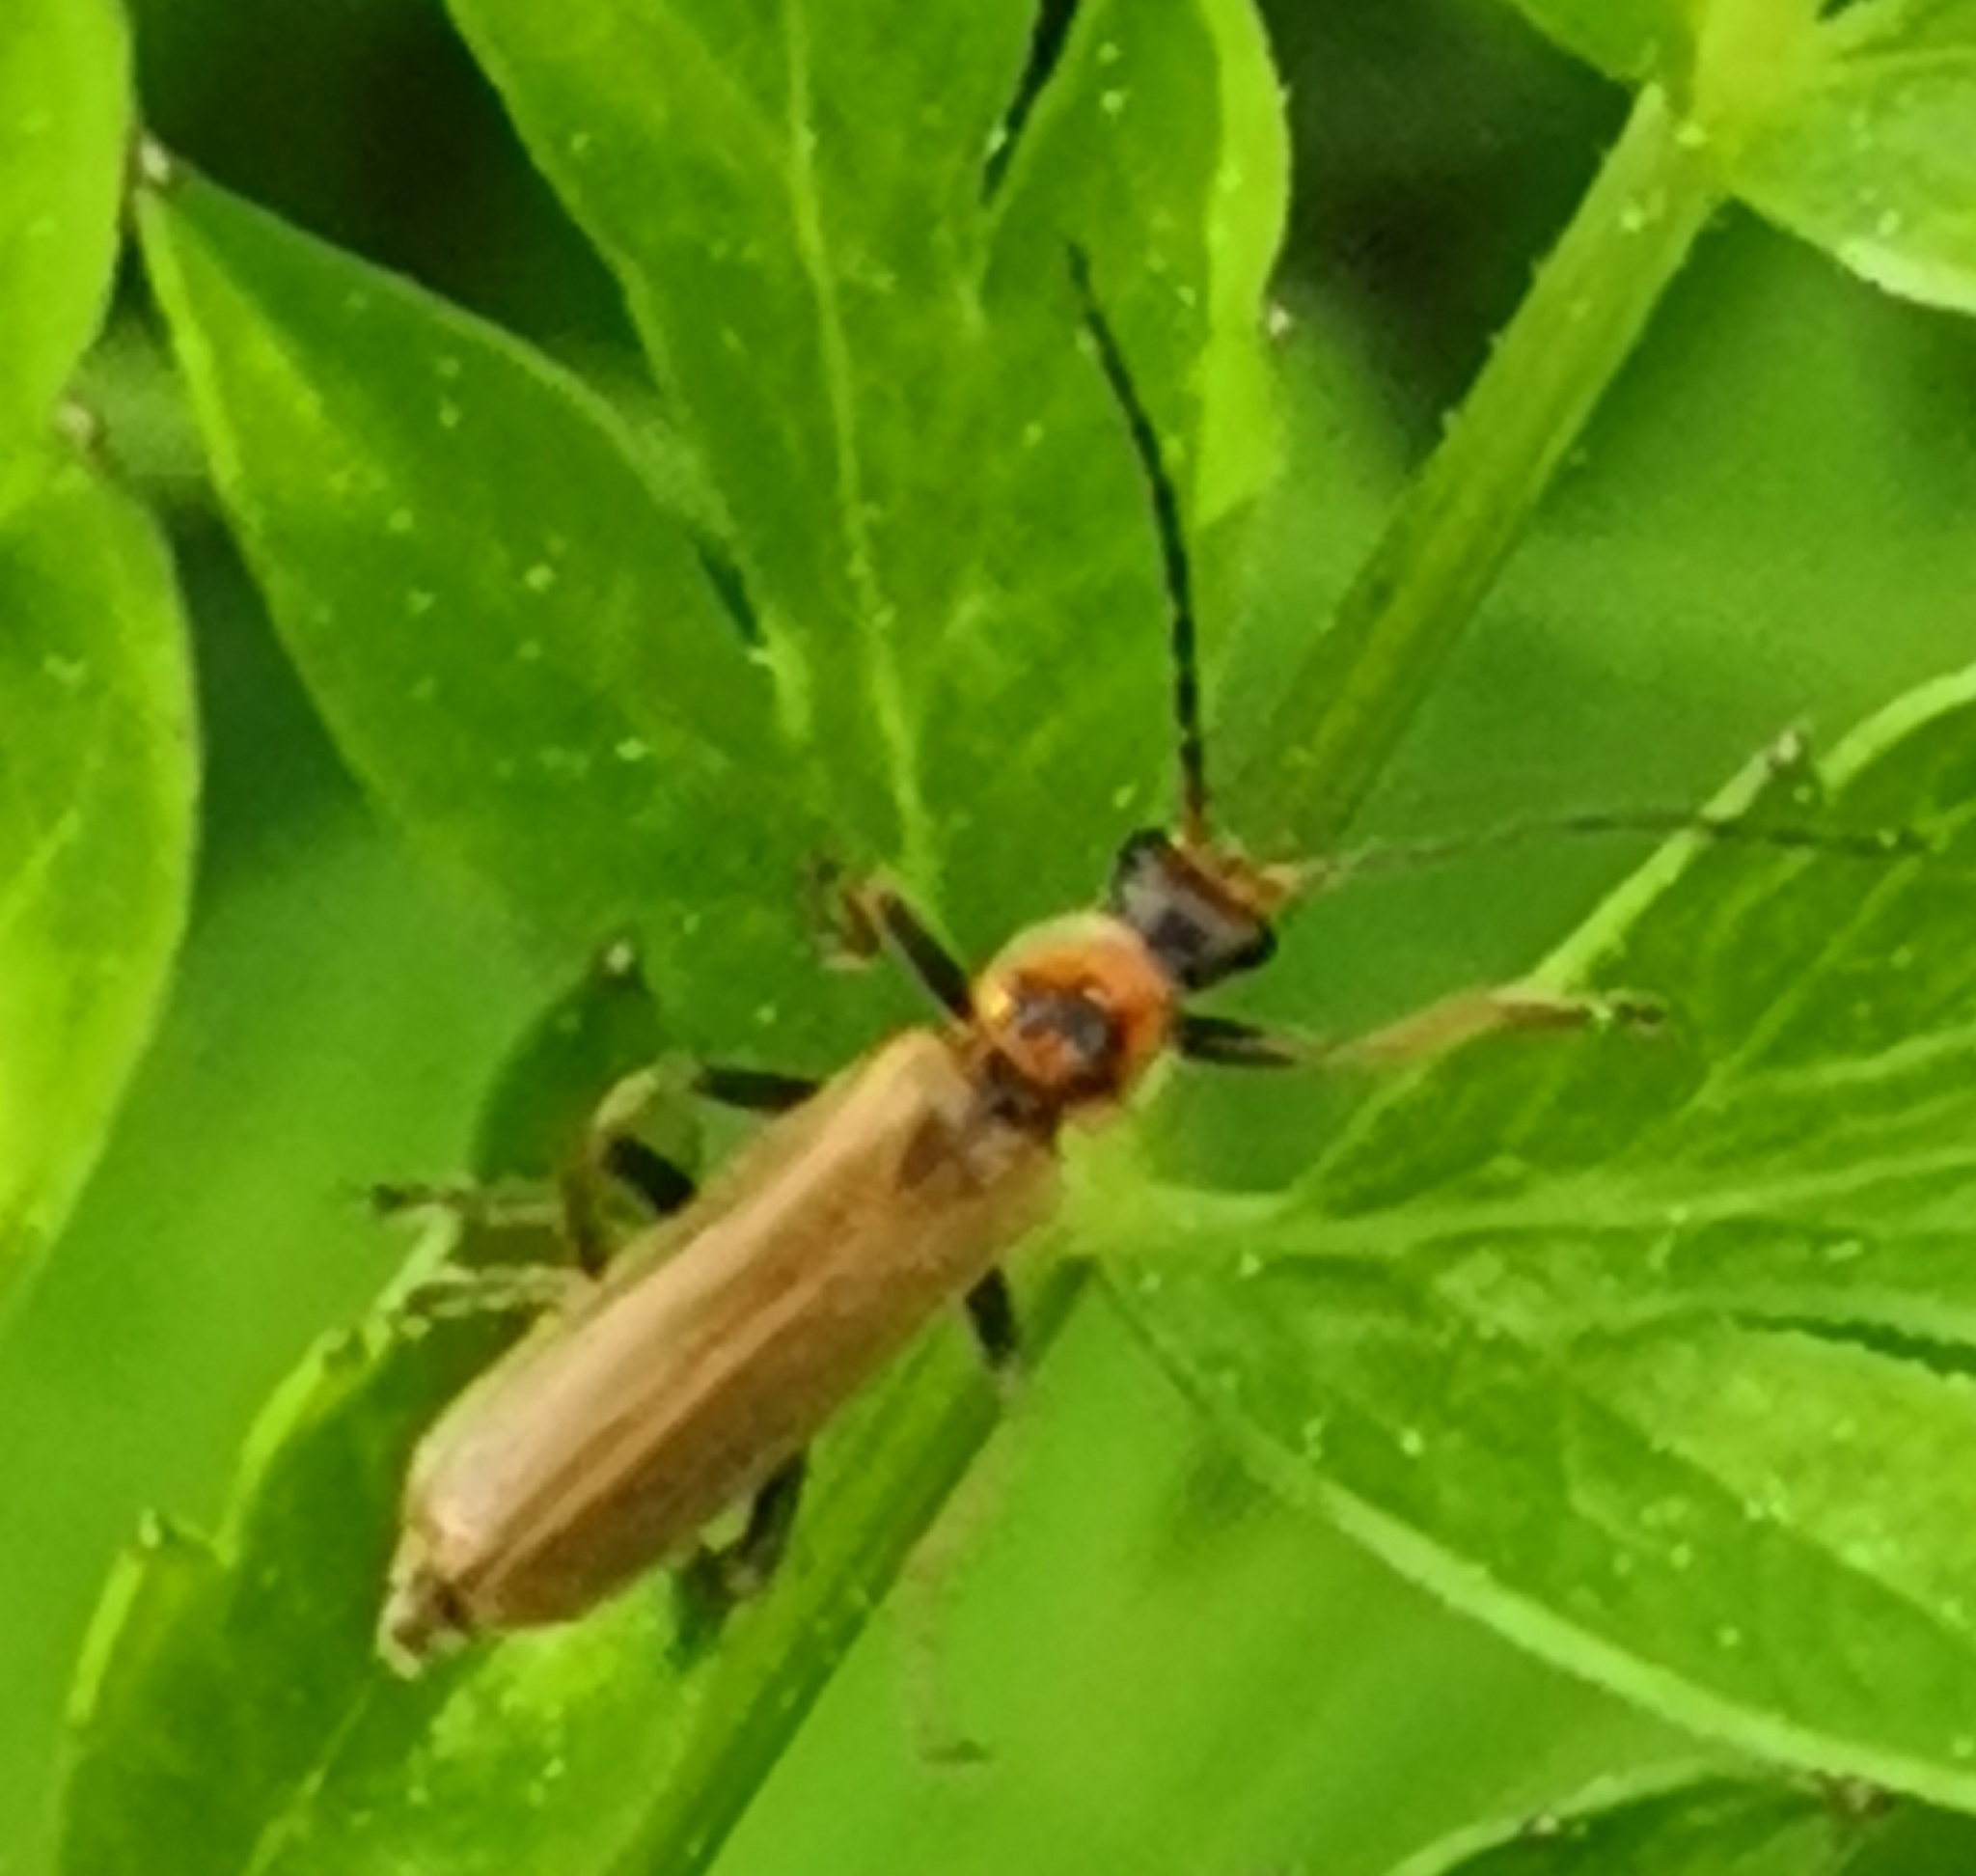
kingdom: Animalia
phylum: Arthropoda
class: Insecta
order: Coleoptera
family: Cantharidae
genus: Cantharis
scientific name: Cantharis figurata
